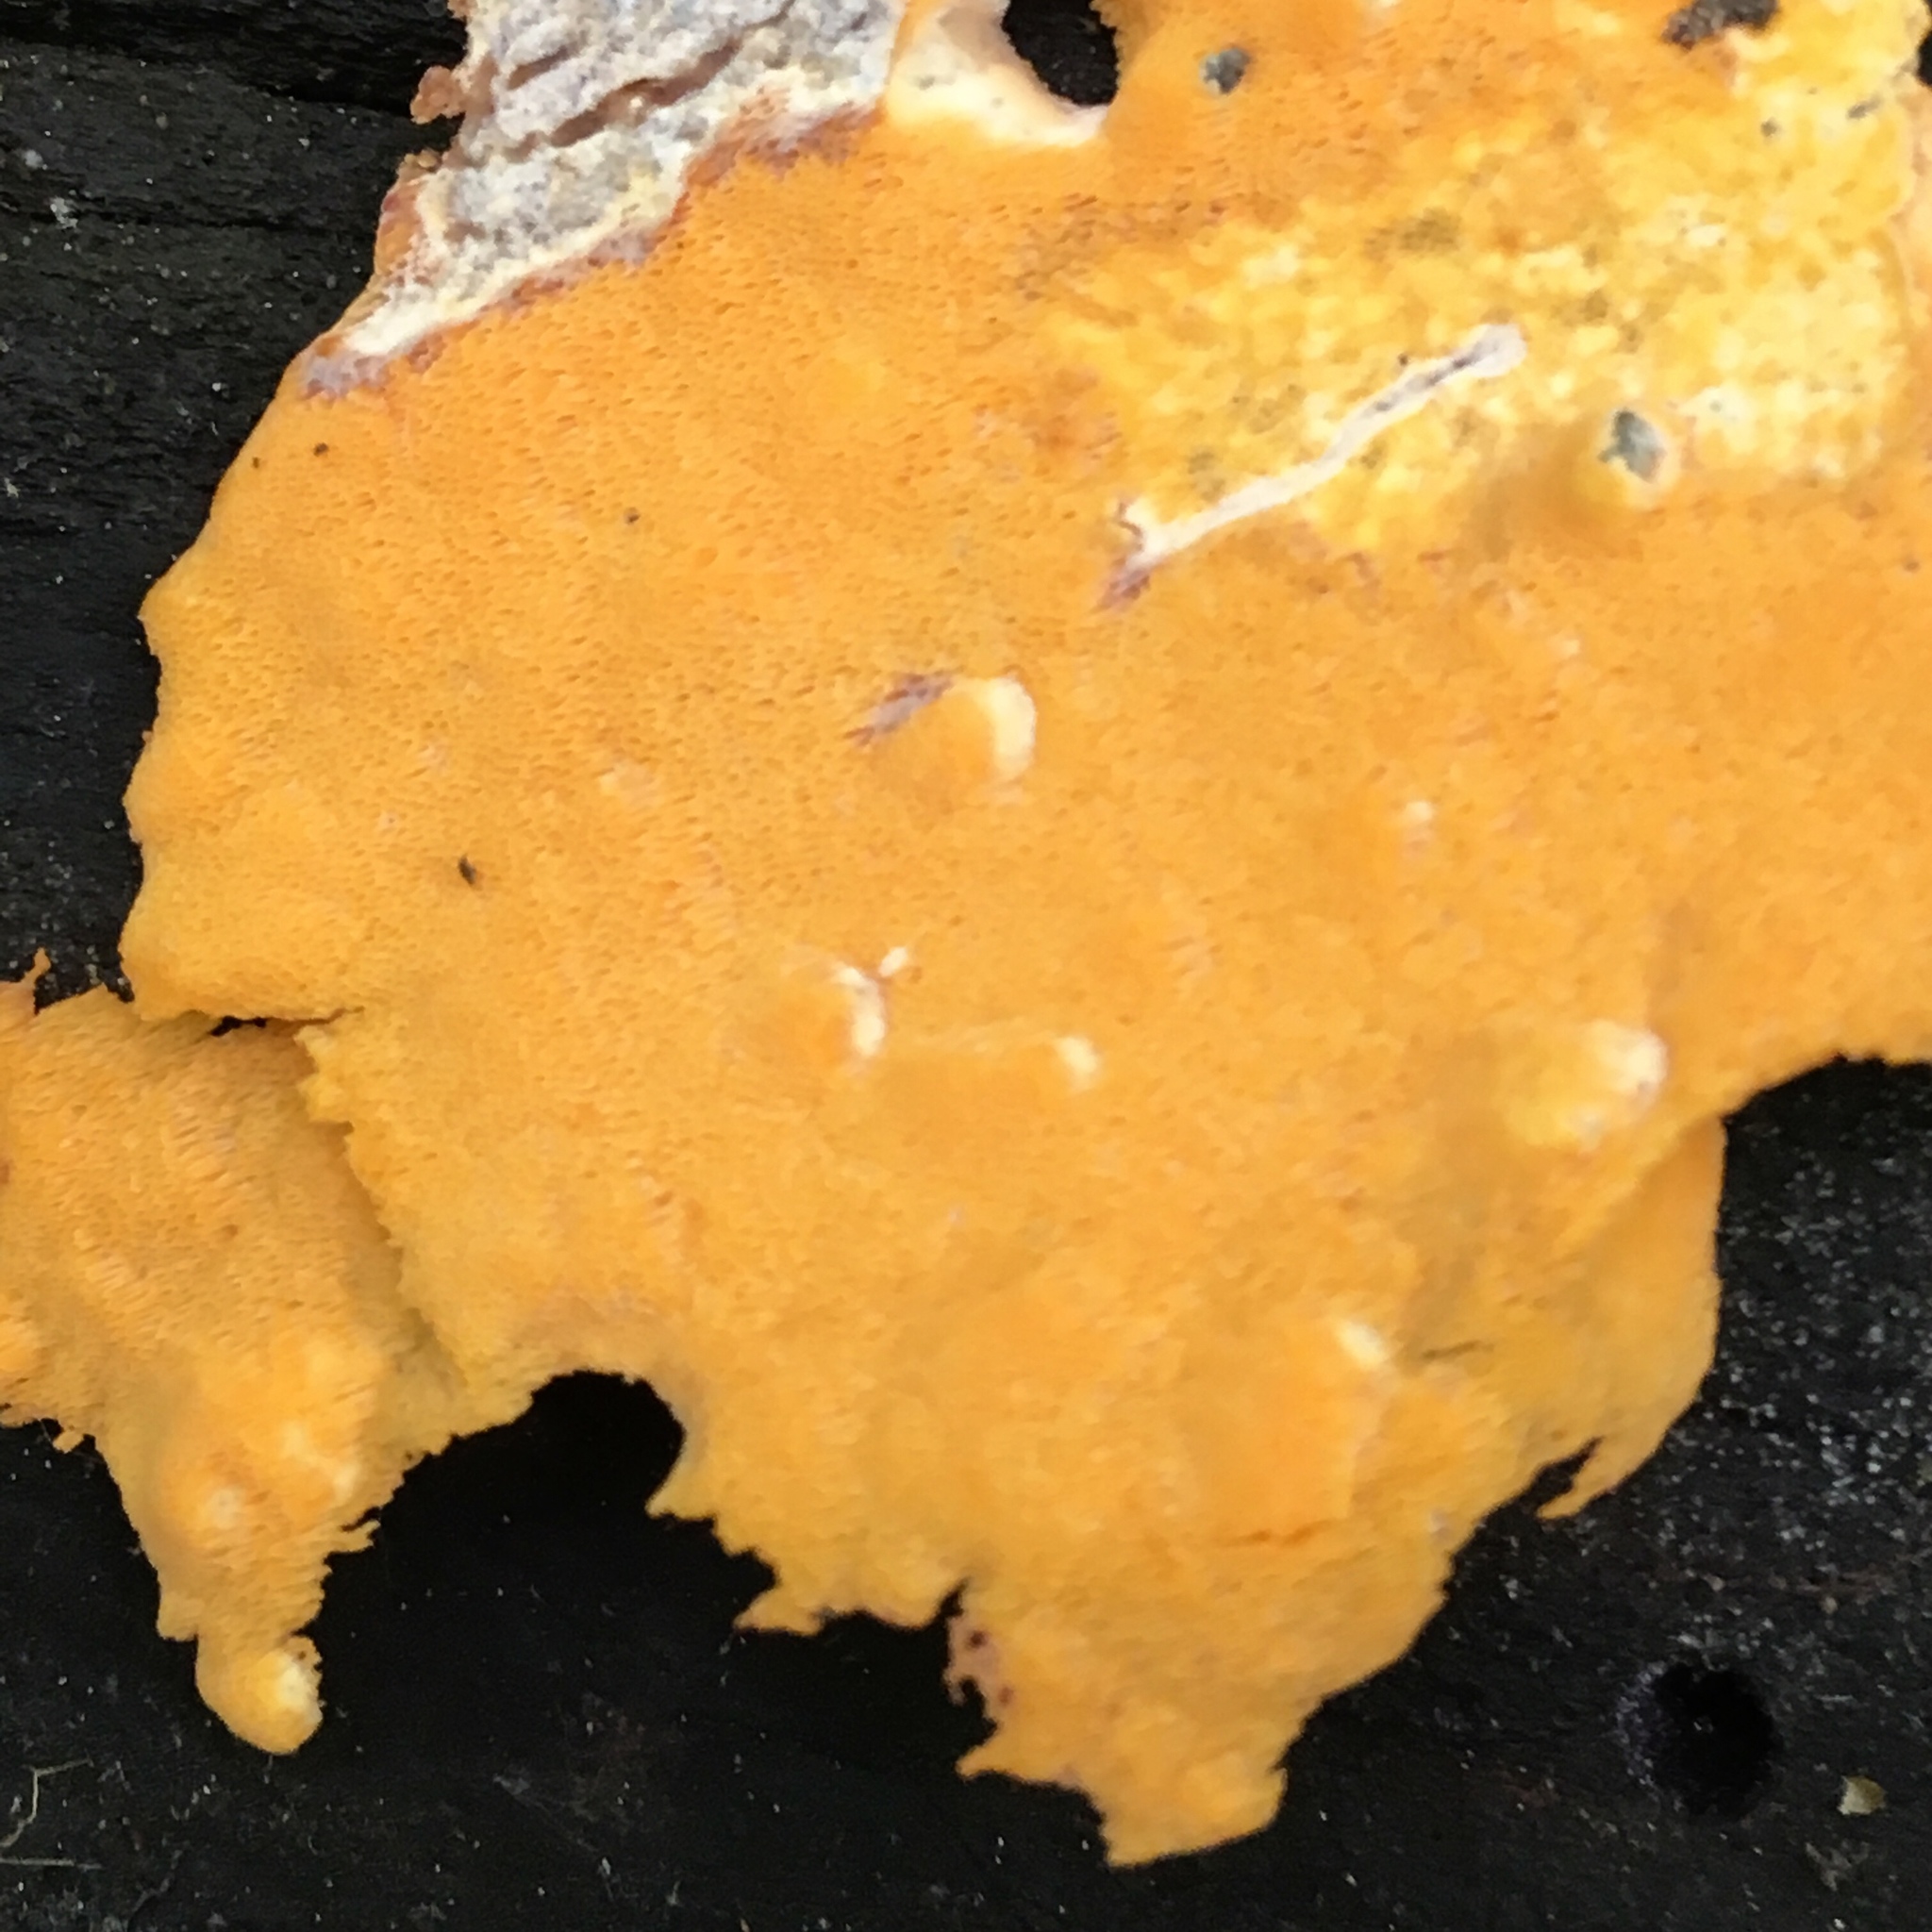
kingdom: Fungi
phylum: Basidiomycota
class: Agaricomycetes
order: Polyporales
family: Irpicaceae
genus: Ceriporia
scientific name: Ceriporia spissa
